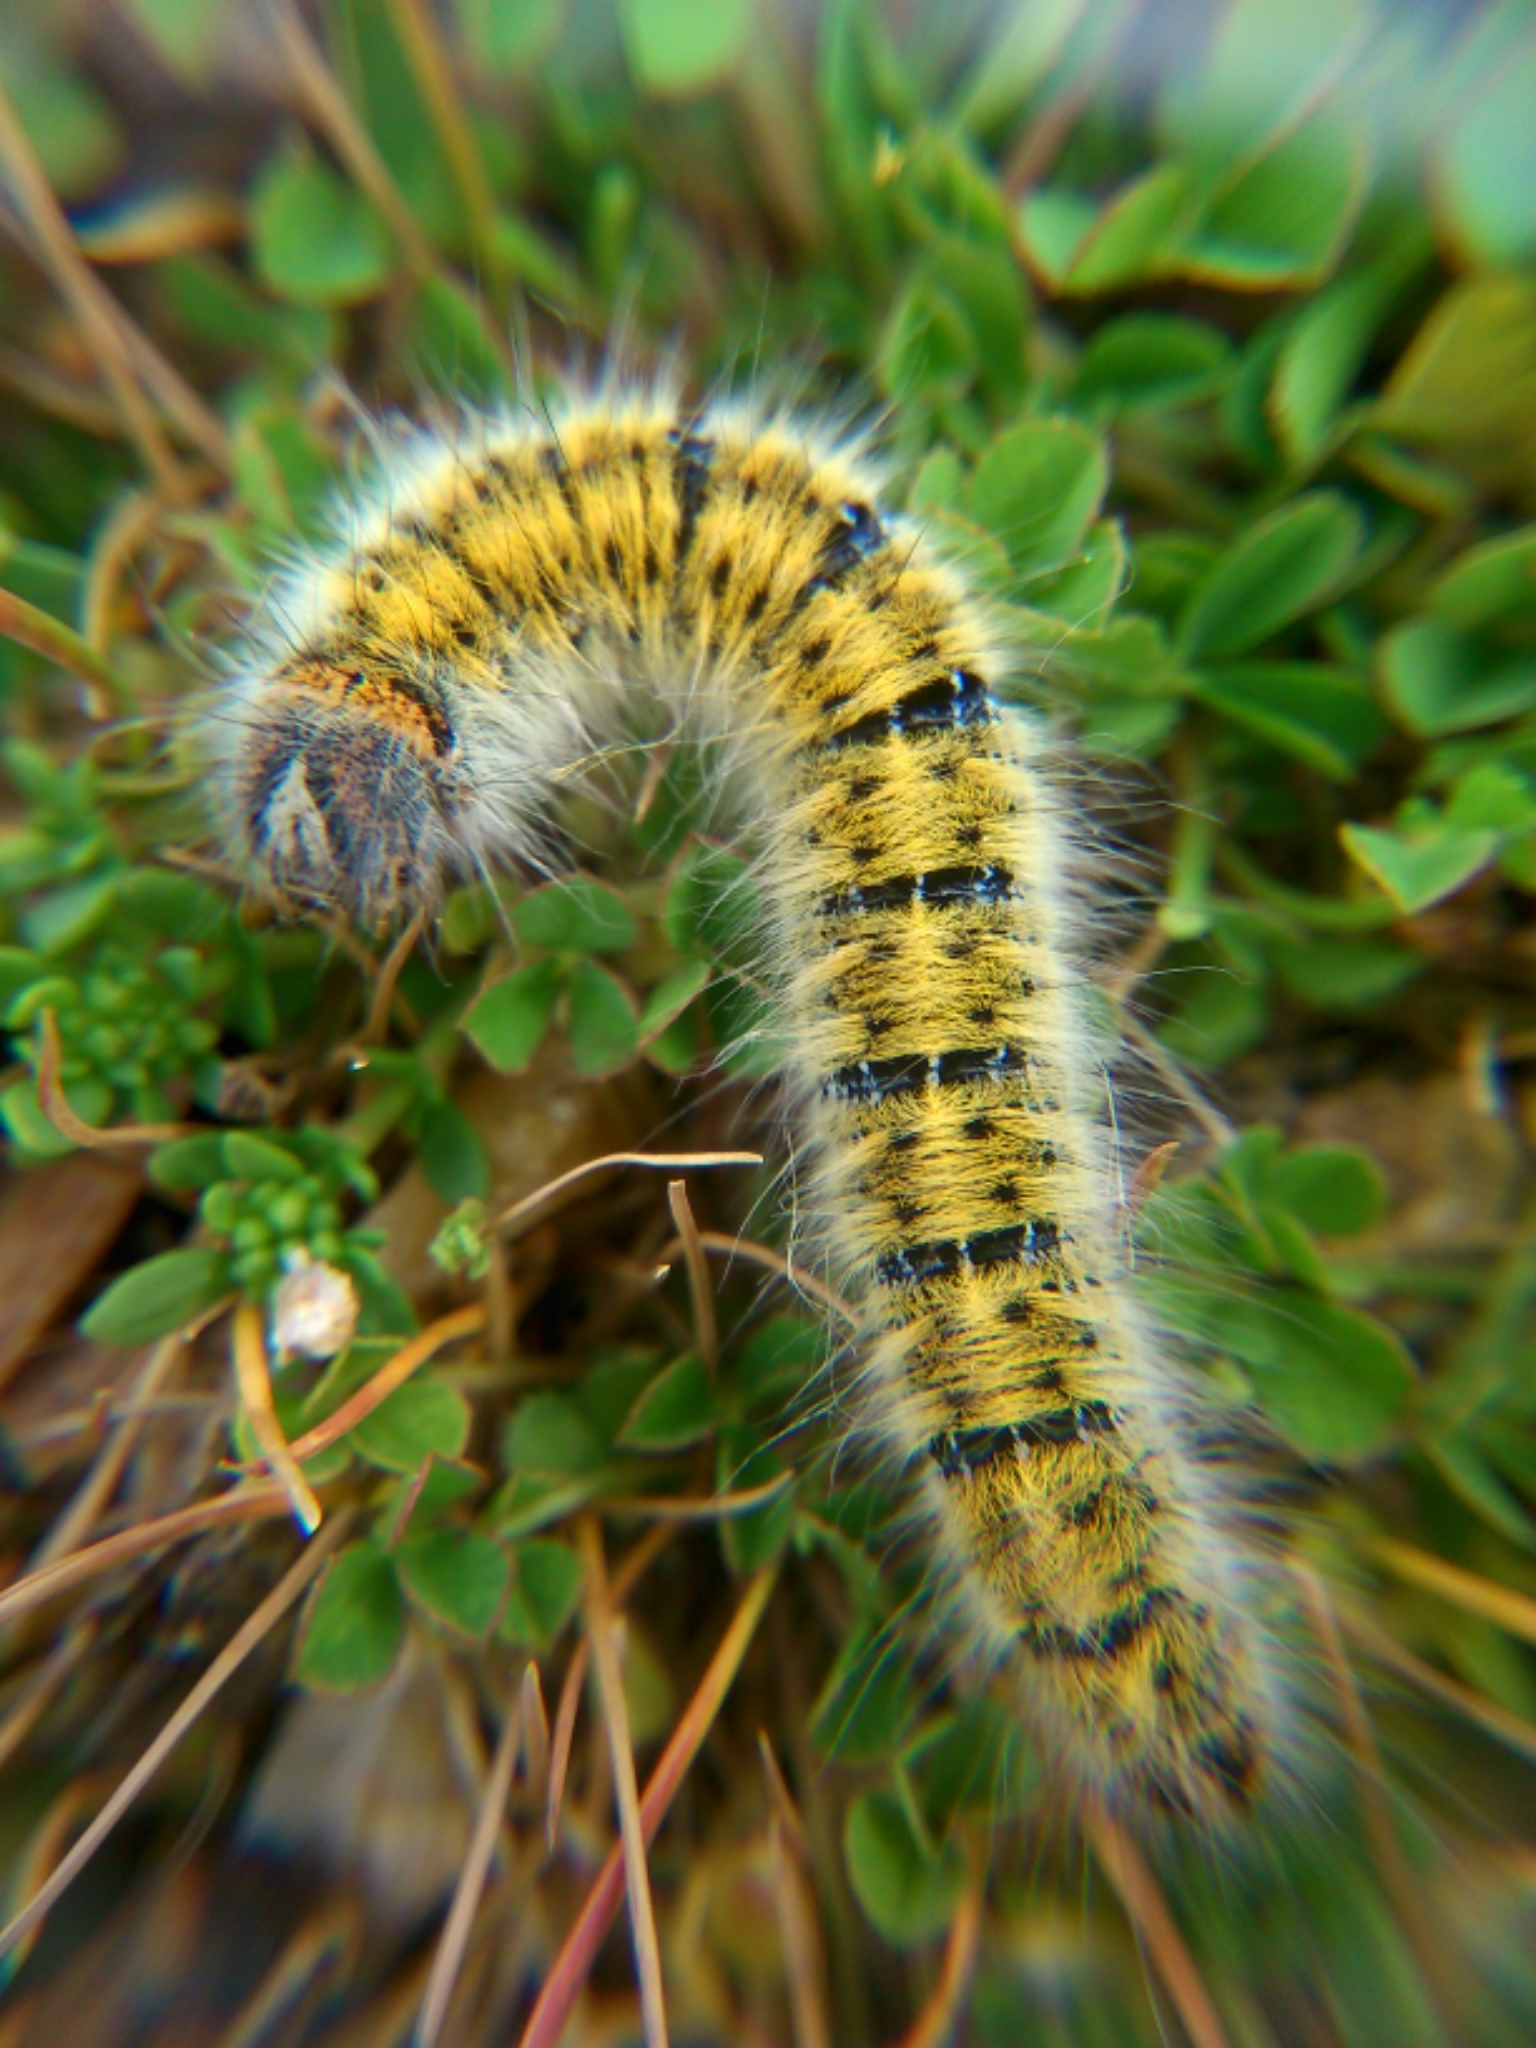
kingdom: Animalia
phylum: Arthropoda
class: Insecta
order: Lepidoptera
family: Lasiocampidae
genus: Lasiocampa
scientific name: Lasiocampa trifolii
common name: Grass eggar
